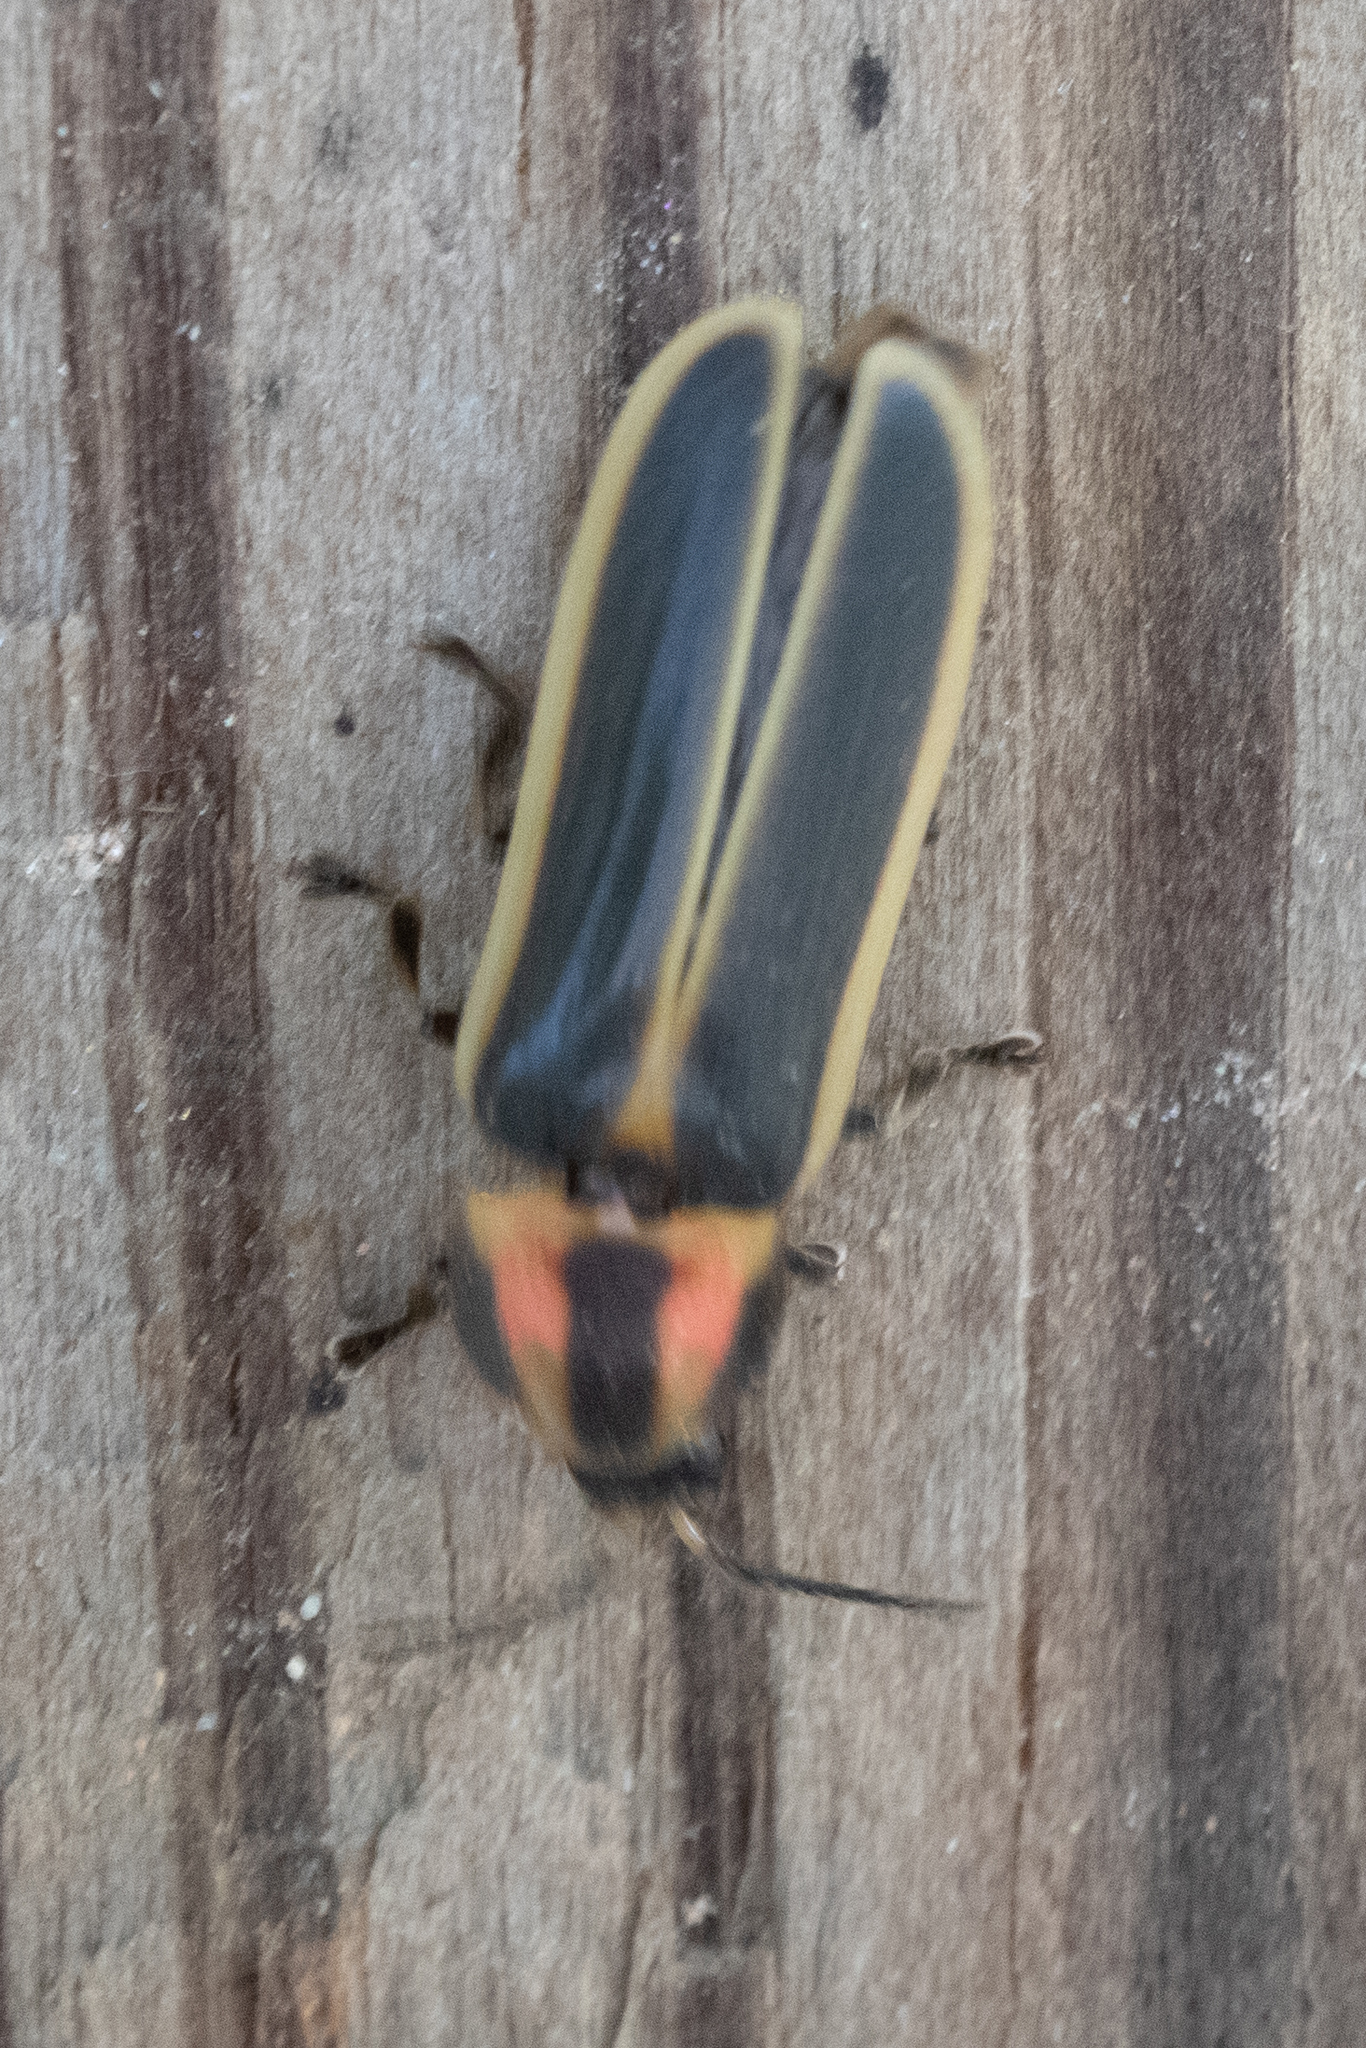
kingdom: Animalia
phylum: Arthropoda
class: Insecta
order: Coleoptera
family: Lampyridae
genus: Pyractomena
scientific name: Pyractomena
